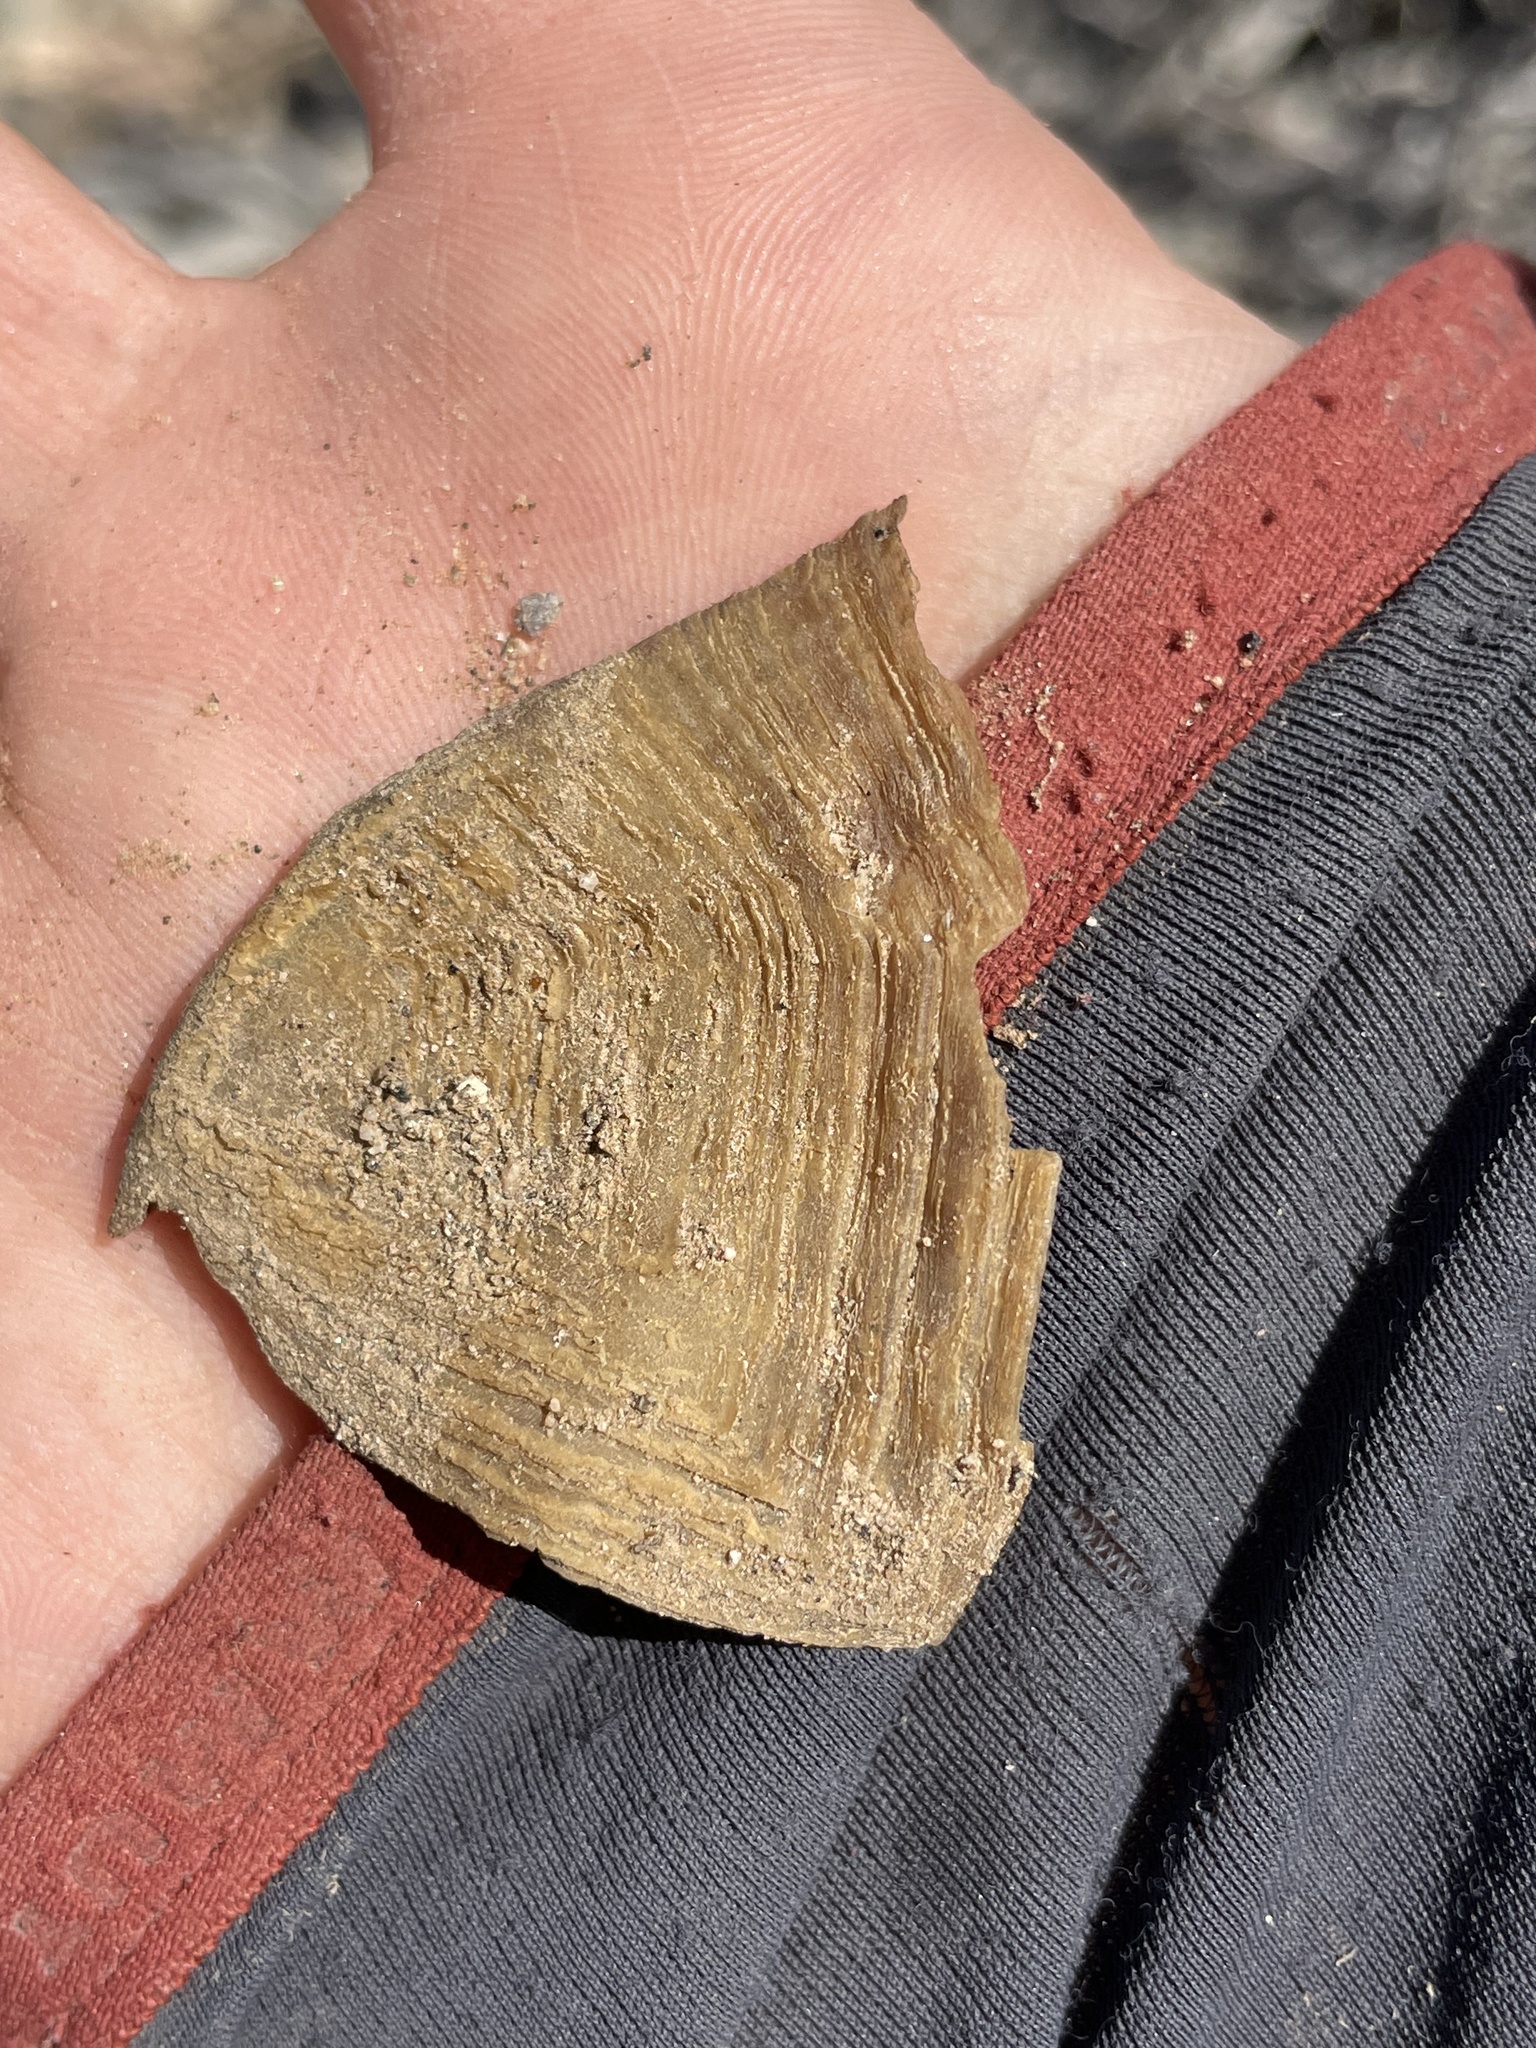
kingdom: Animalia
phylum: Chordata
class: Testudines
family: Testudinidae
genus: Gopherus
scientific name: Gopherus agassizii
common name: Mojave desert tortoise
